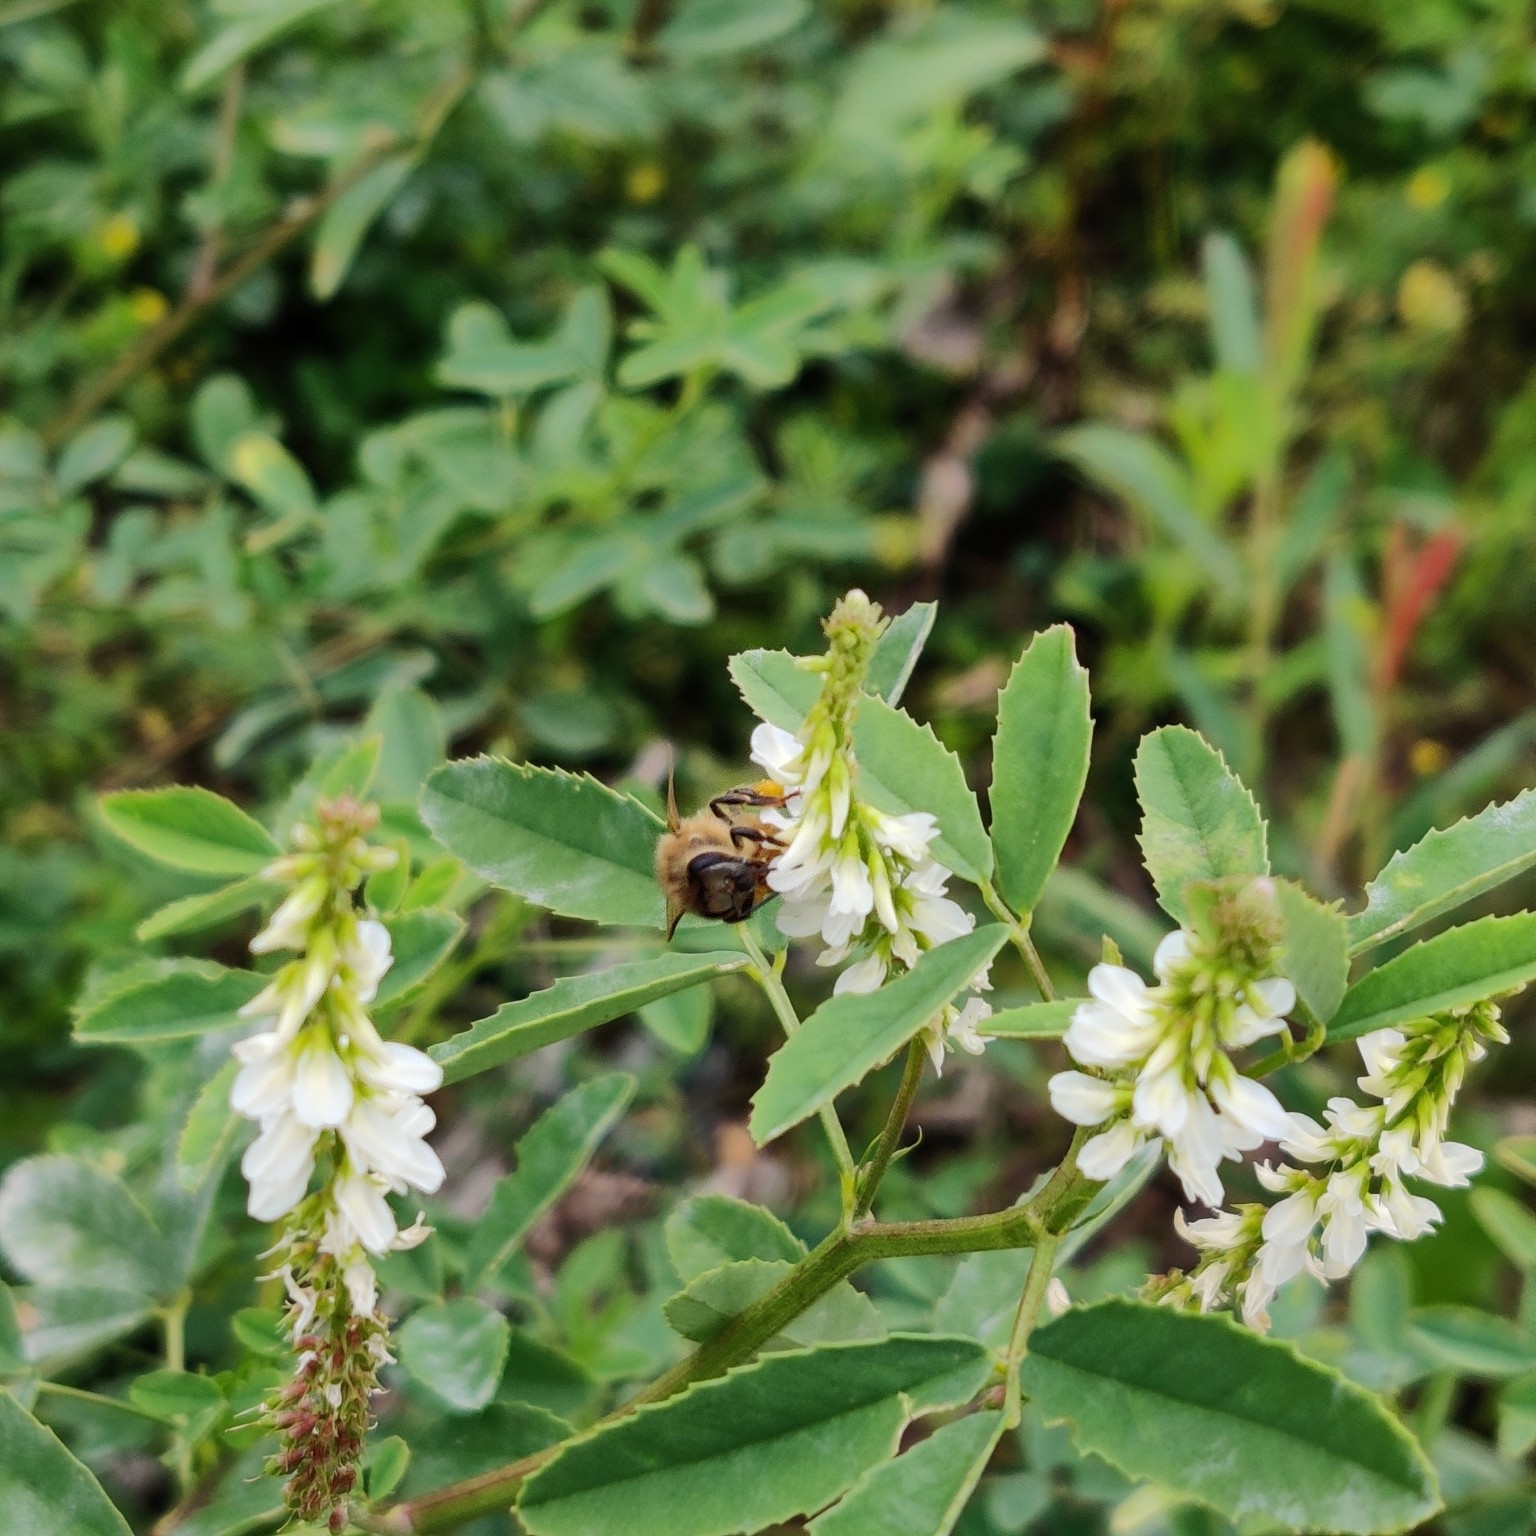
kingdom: Animalia
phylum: Arthropoda
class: Insecta
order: Hymenoptera
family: Apidae
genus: Apis
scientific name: Apis mellifera
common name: Honey bee
